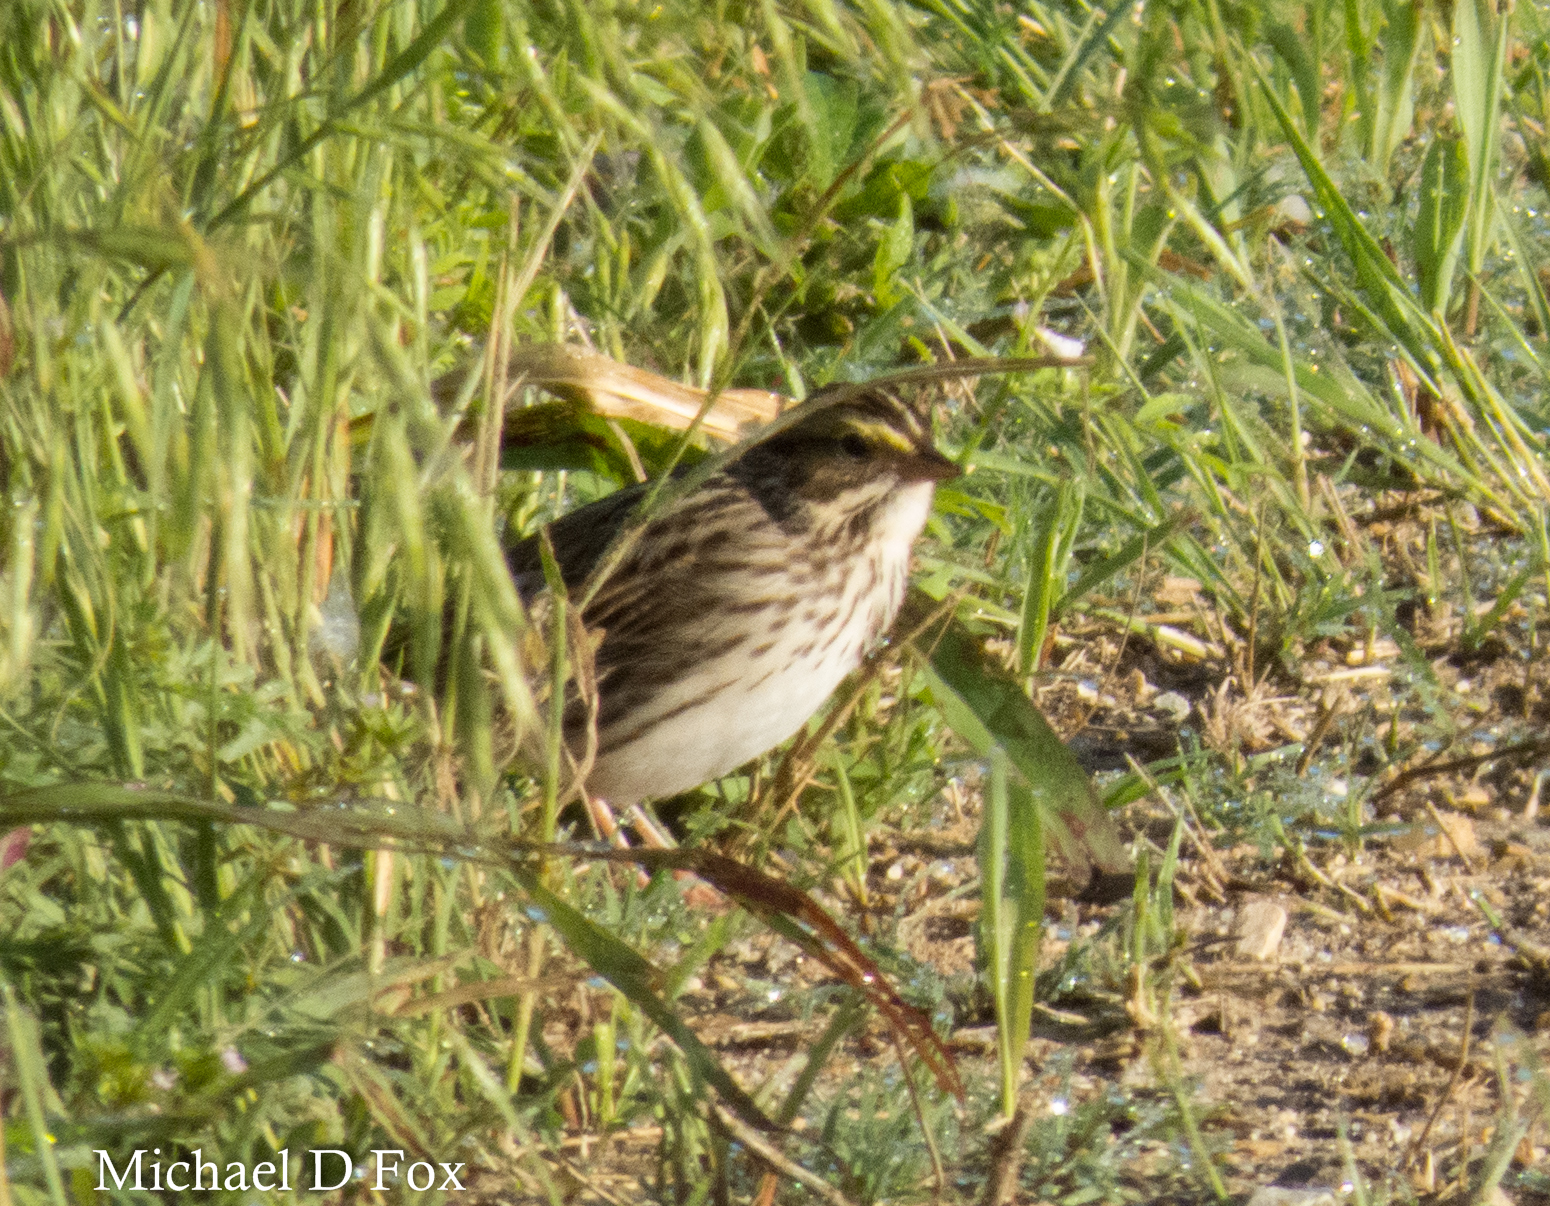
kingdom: Animalia
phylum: Chordata
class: Aves
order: Passeriformes
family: Passerellidae
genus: Passerculus
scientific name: Passerculus sandwichensis
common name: Savannah sparrow
